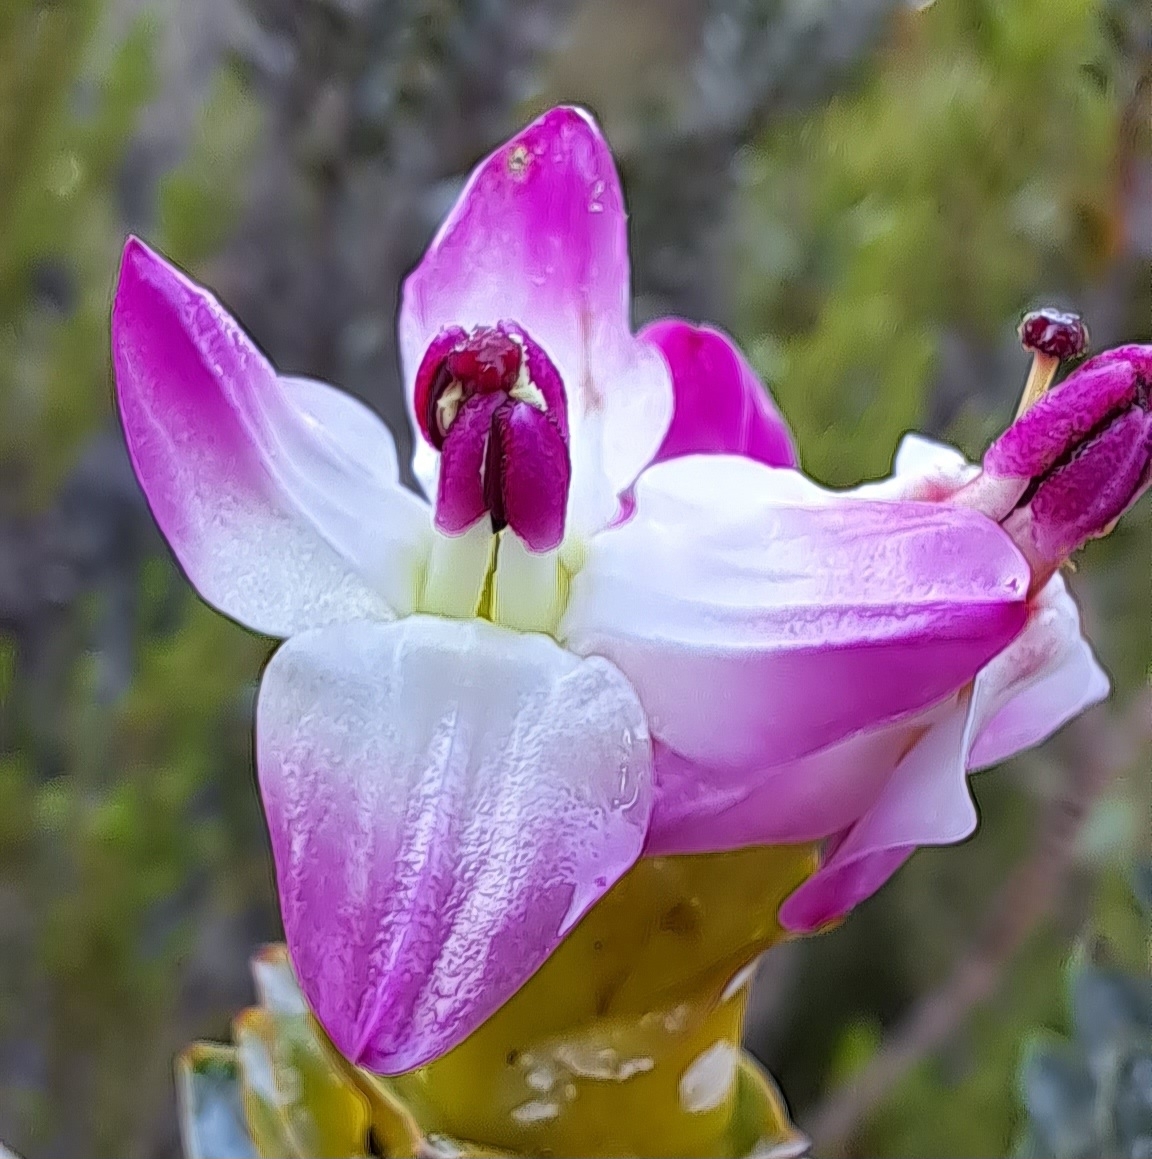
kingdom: Plantae
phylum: Tracheophyta
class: Magnoliopsida
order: Myrtales
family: Penaeaceae
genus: Saltera
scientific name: Saltera sarcocolla
